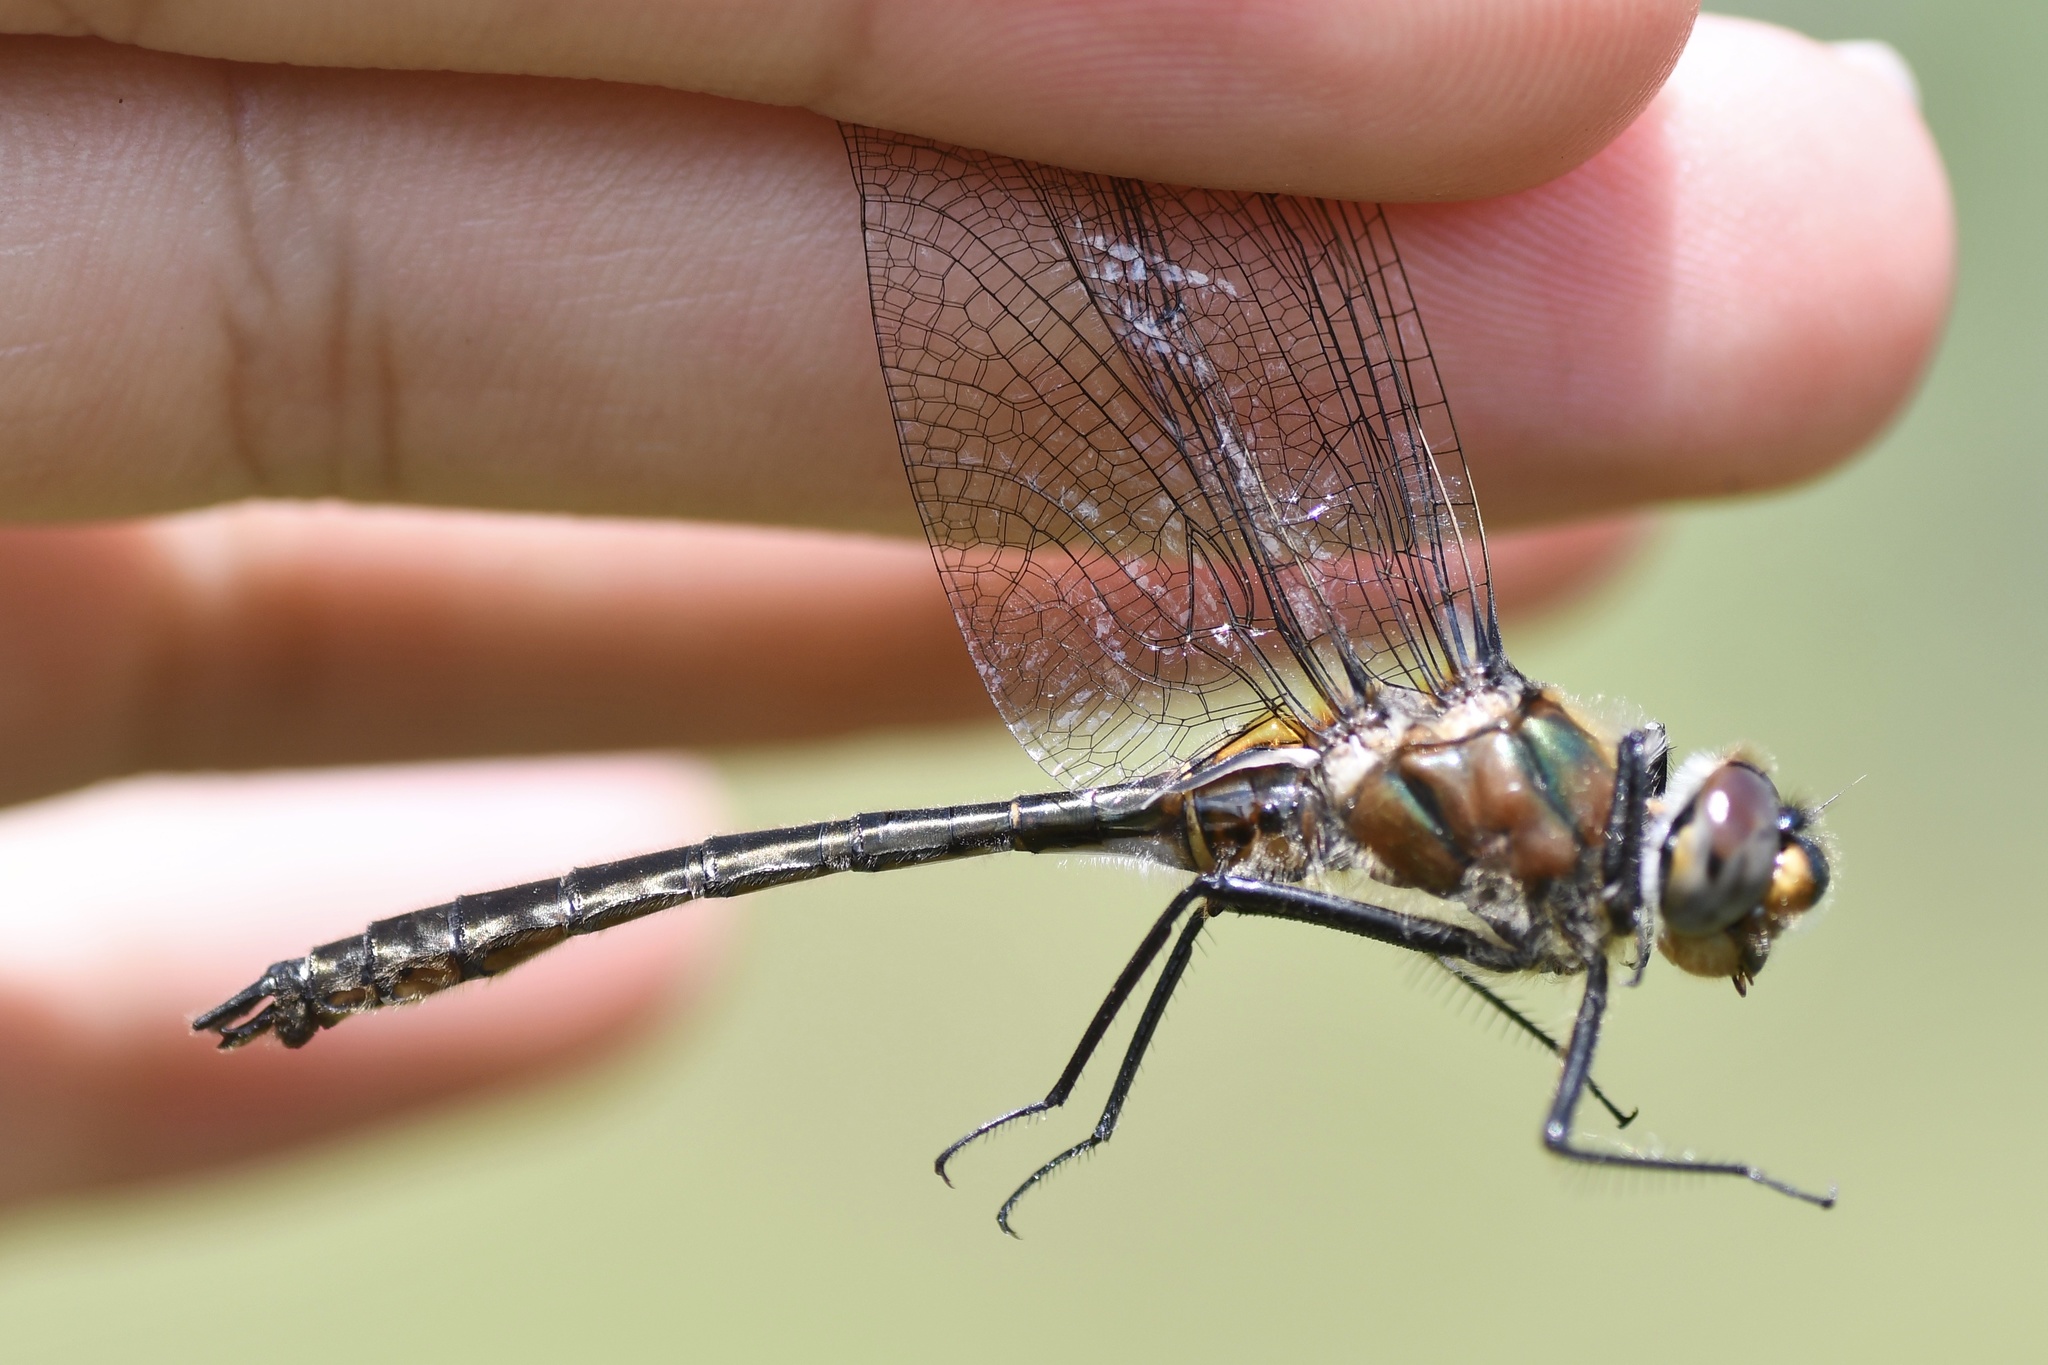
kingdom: Animalia
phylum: Arthropoda
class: Insecta
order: Odonata
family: Corduliidae
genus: Cordulia
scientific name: Cordulia shurtleffii
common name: American emerald
